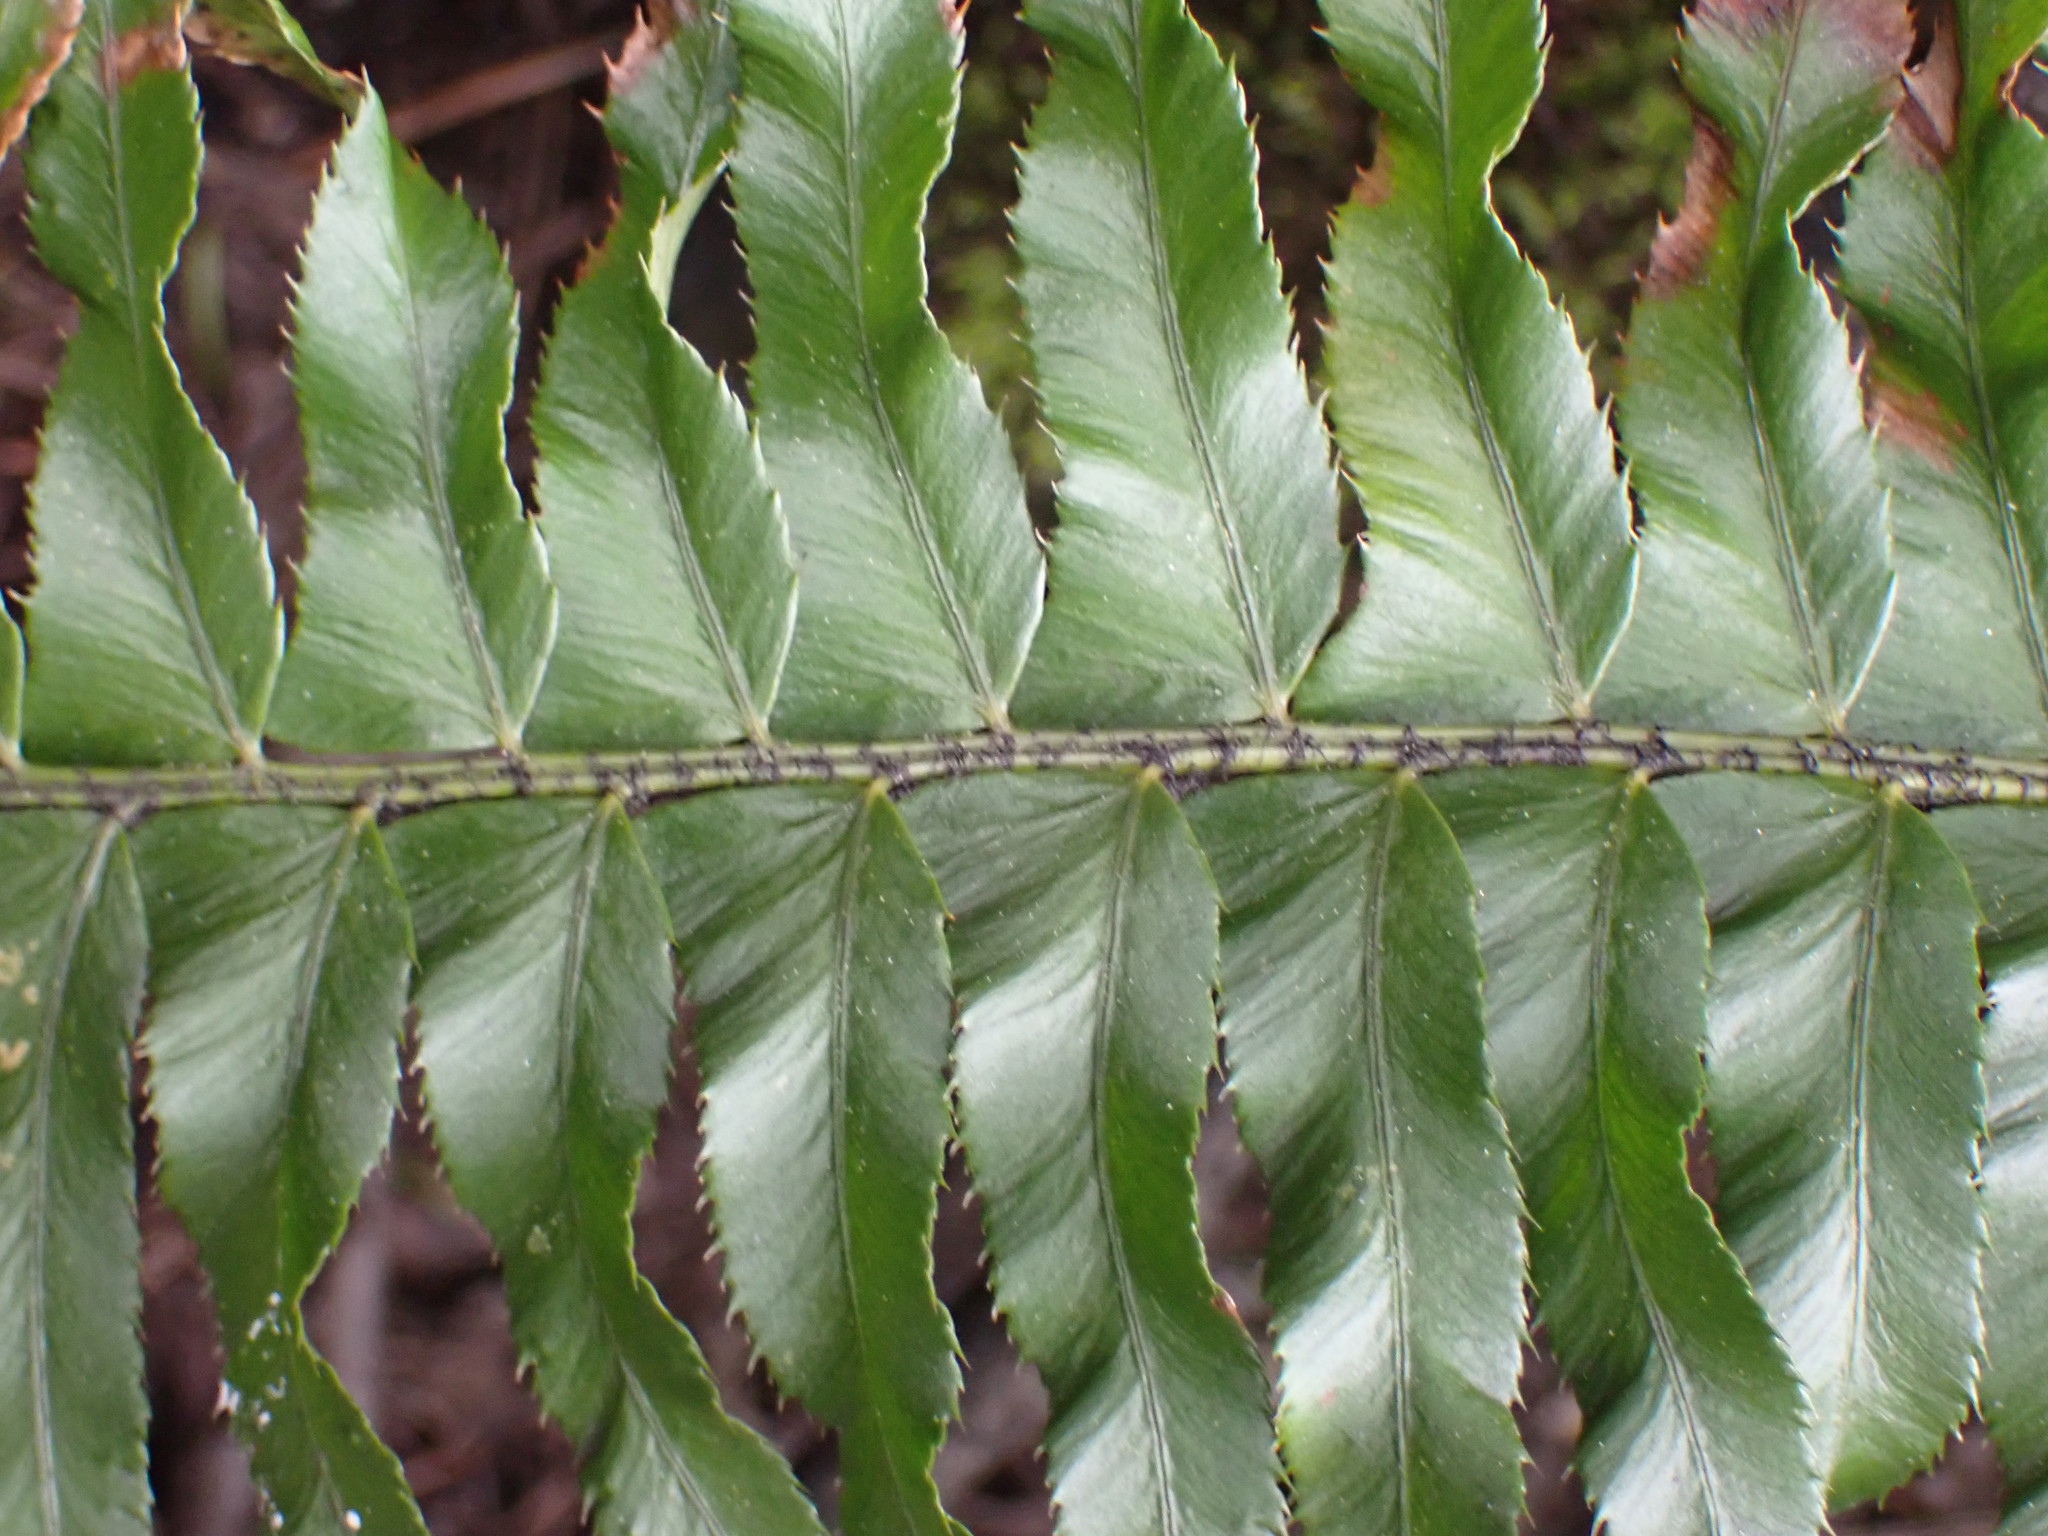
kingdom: Plantae
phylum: Tracheophyta
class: Polypodiopsida
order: Polypodiales
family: Dryopteridaceae
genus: Polystichum
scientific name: Polystichum munitum
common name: Western sword-fern
